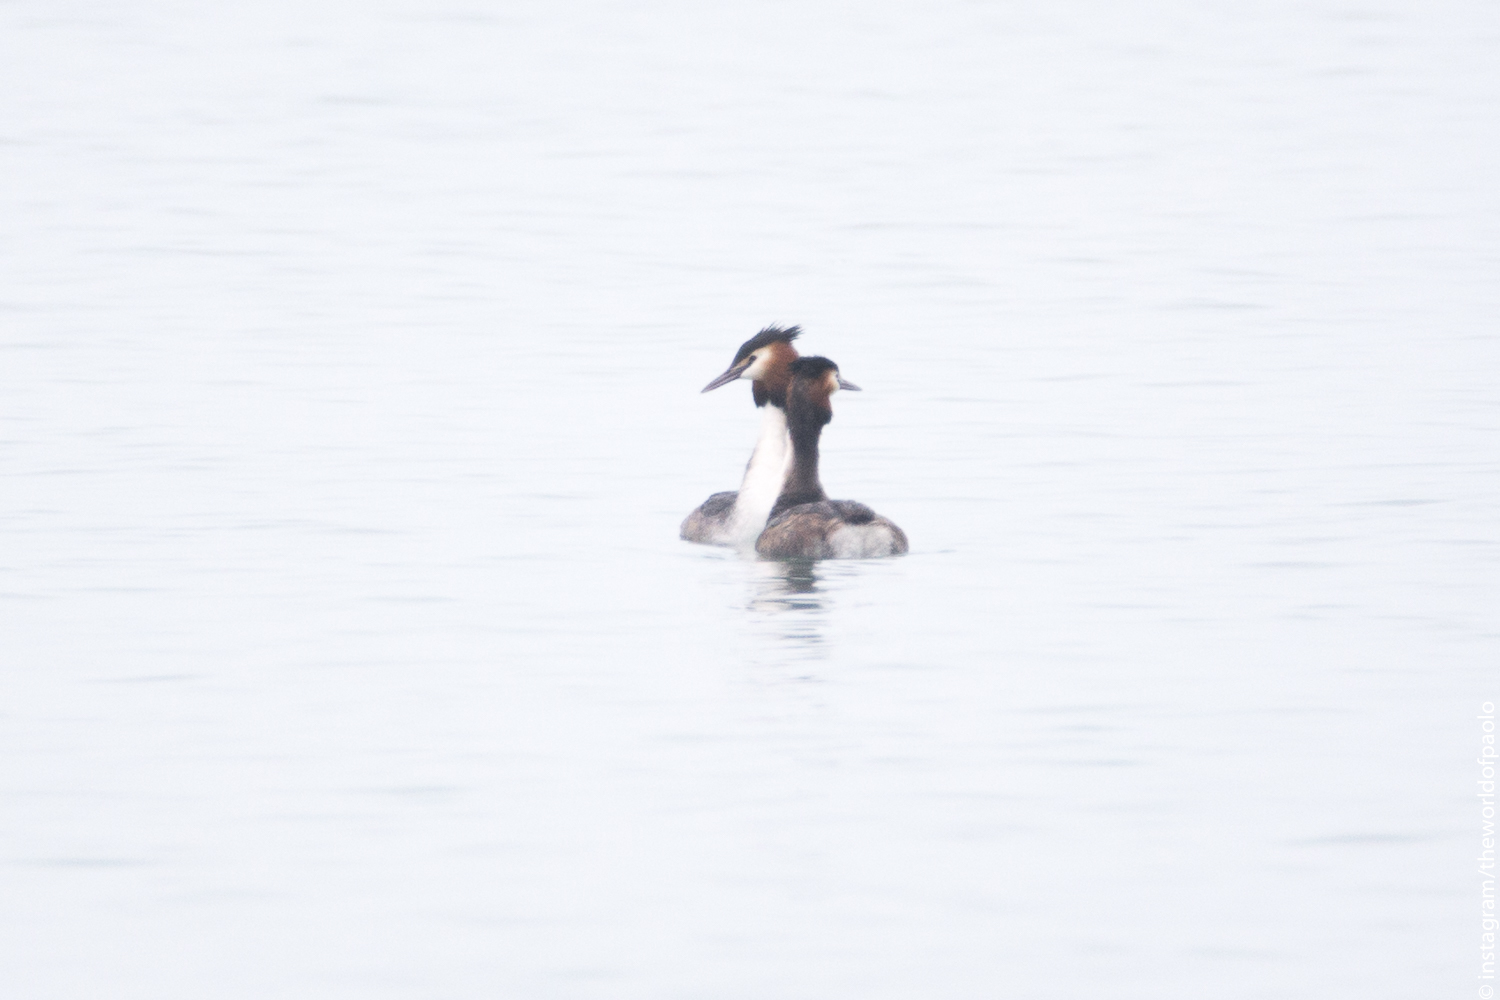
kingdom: Animalia
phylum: Chordata
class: Aves
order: Podicipediformes
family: Podicipedidae
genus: Podiceps
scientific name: Podiceps cristatus
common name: Great crested grebe
